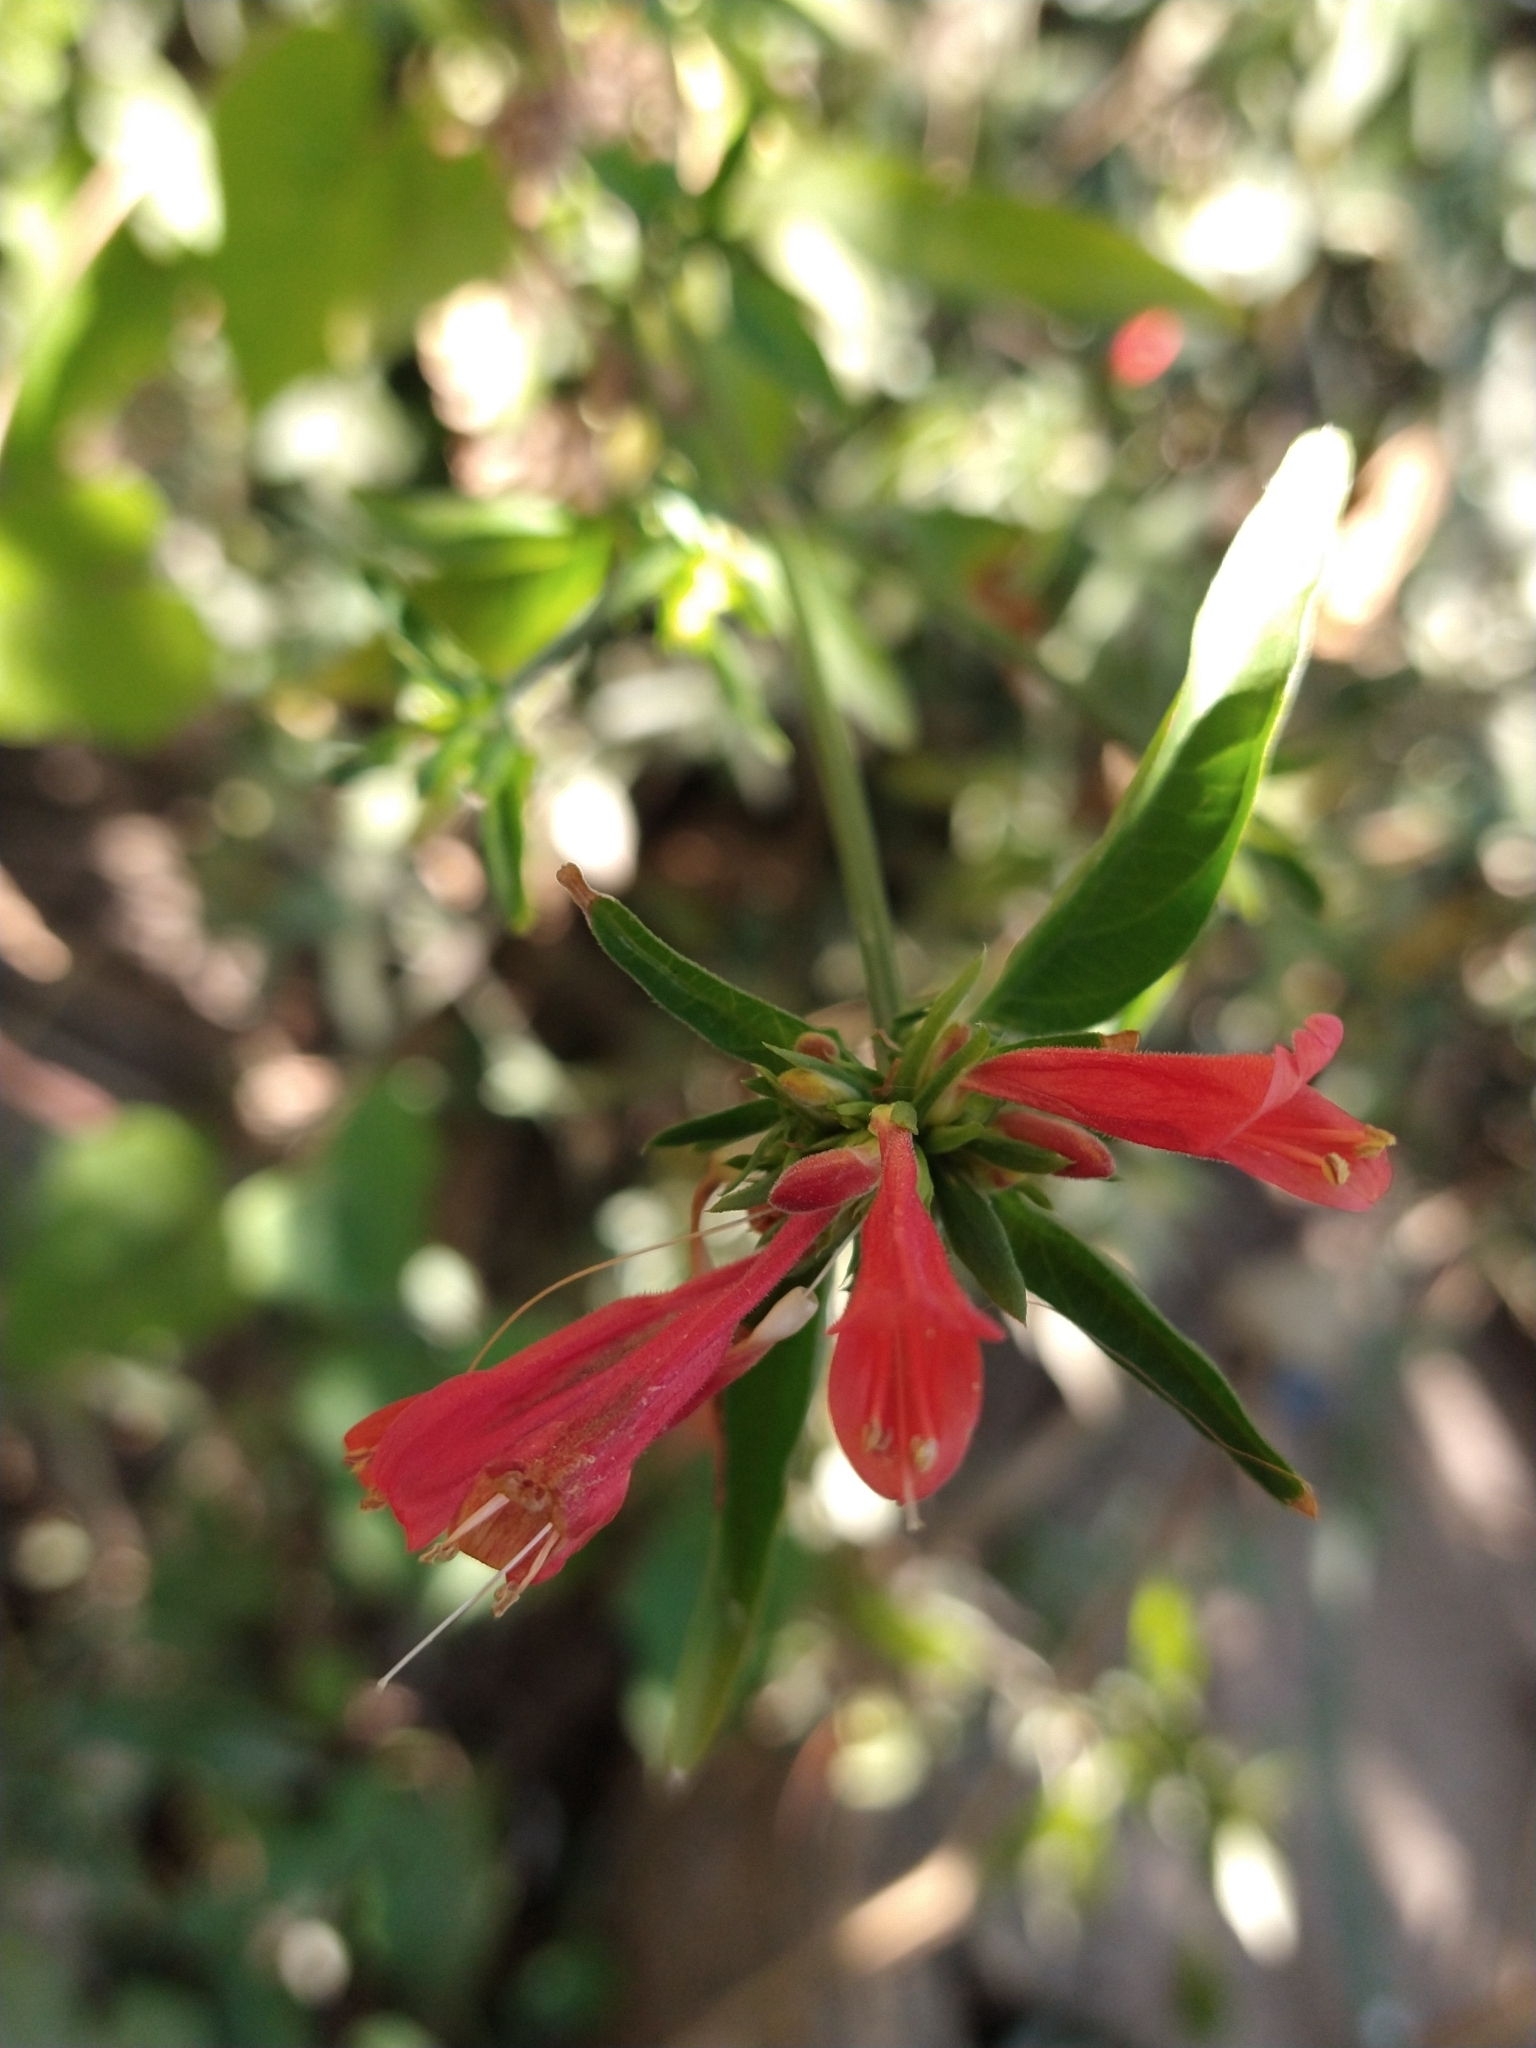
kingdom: Plantae
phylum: Tracheophyta
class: Magnoliopsida
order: Lamiales
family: Acanthaceae
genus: Dicliptera
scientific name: Dicliptera squarrosa
